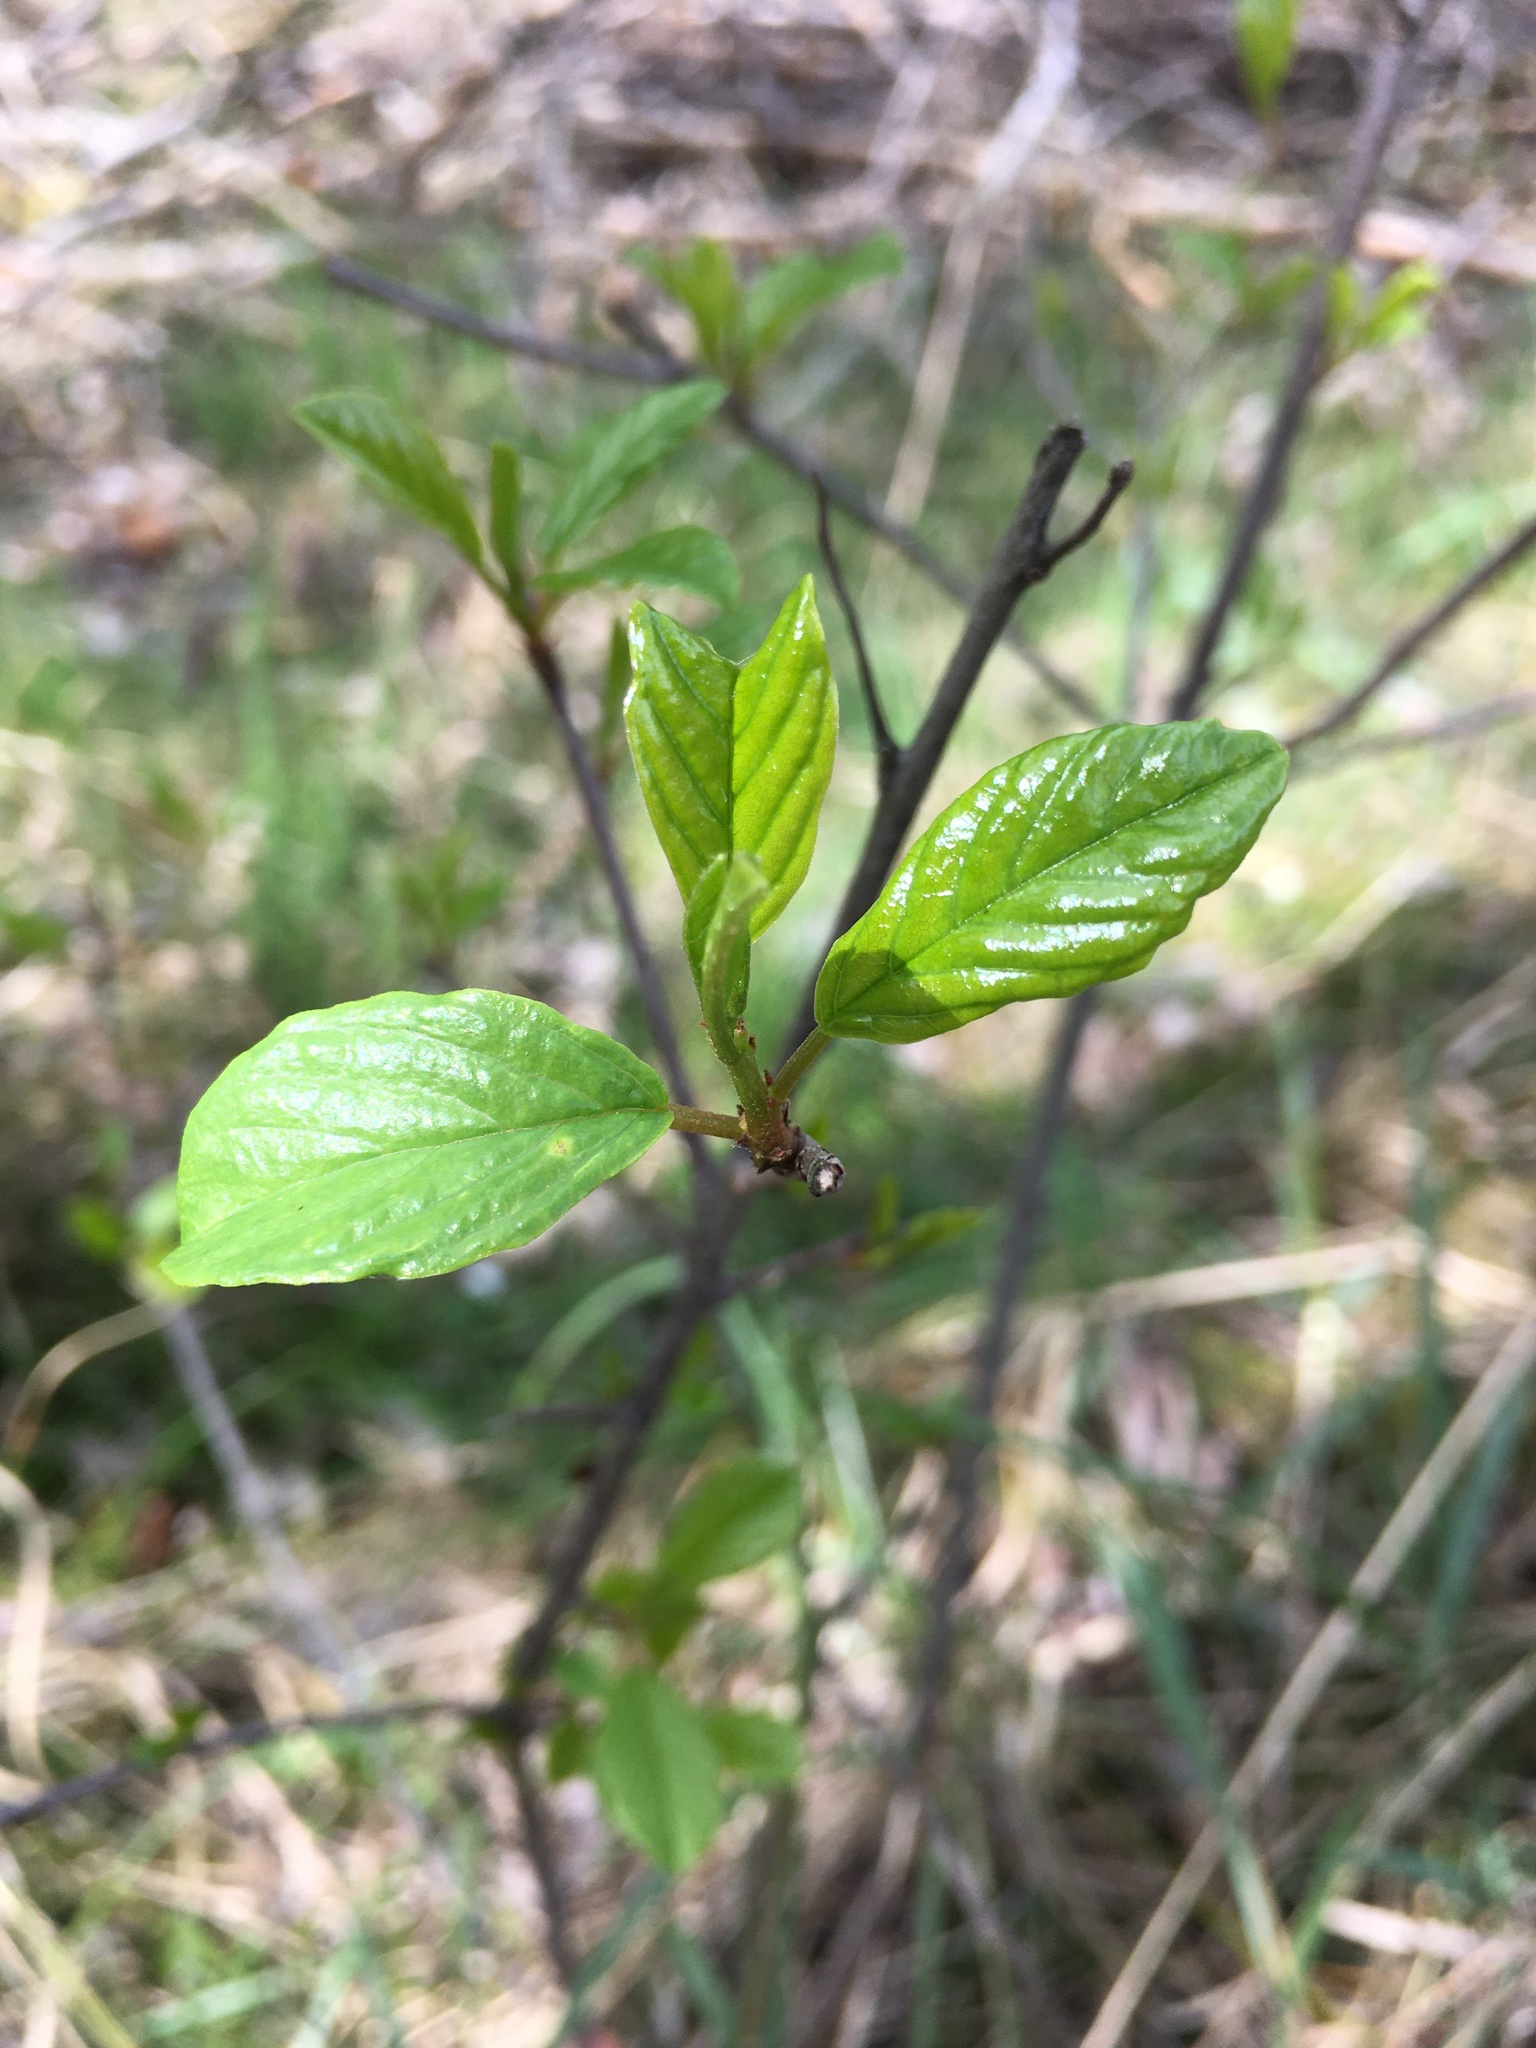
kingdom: Plantae
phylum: Tracheophyta
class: Magnoliopsida
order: Rosales
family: Rhamnaceae
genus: Frangula
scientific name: Frangula alnus
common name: Alder buckthorn
